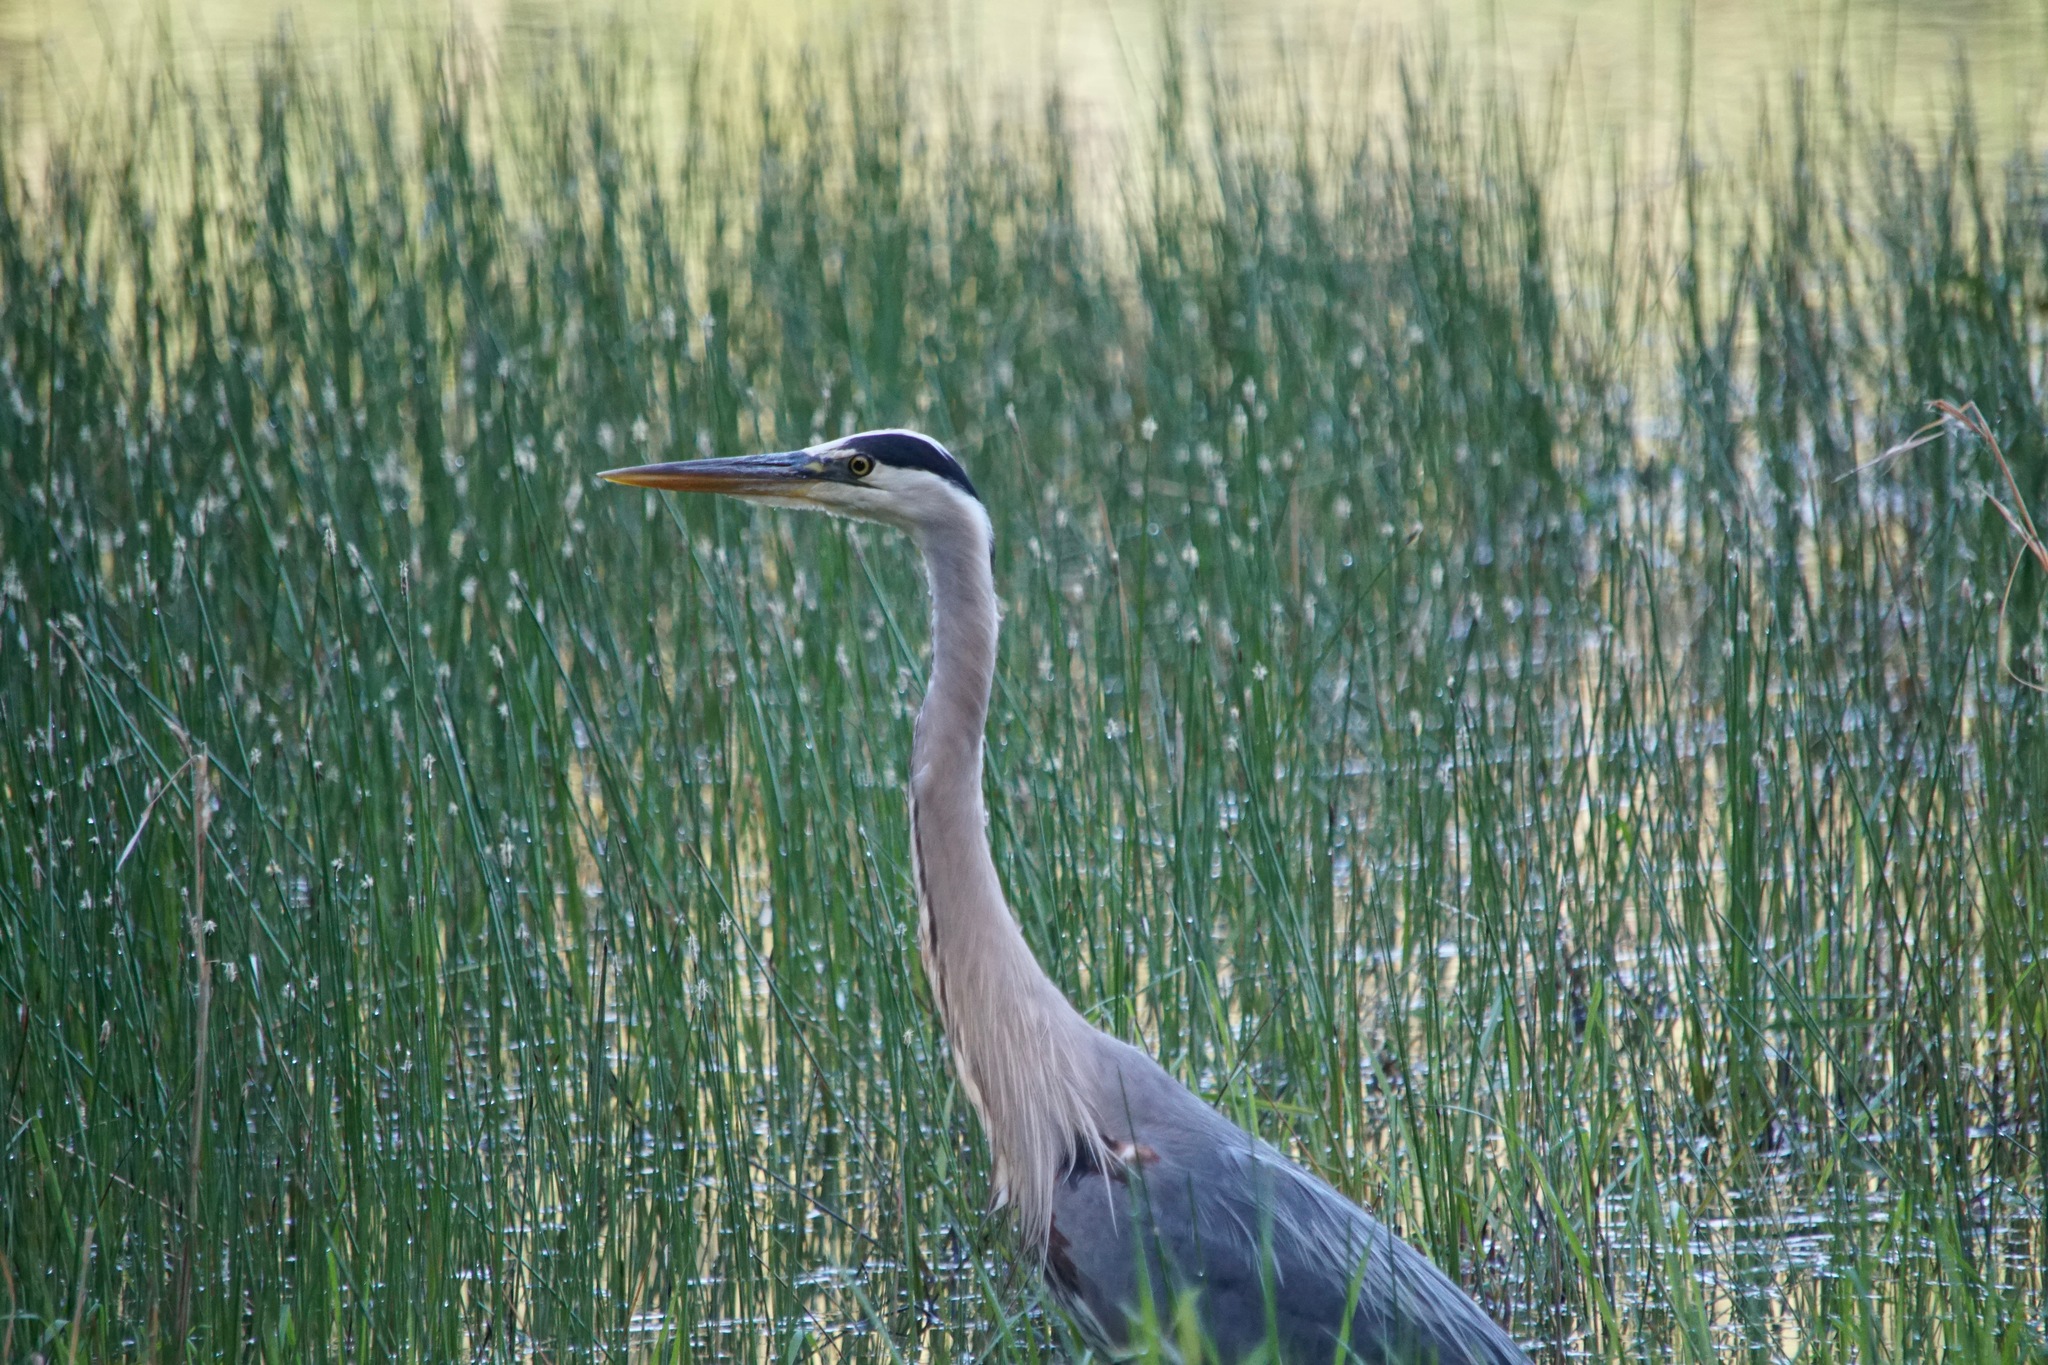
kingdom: Animalia
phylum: Chordata
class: Aves
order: Pelecaniformes
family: Ardeidae
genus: Ardea
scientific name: Ardea herodias
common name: Great blue heron
